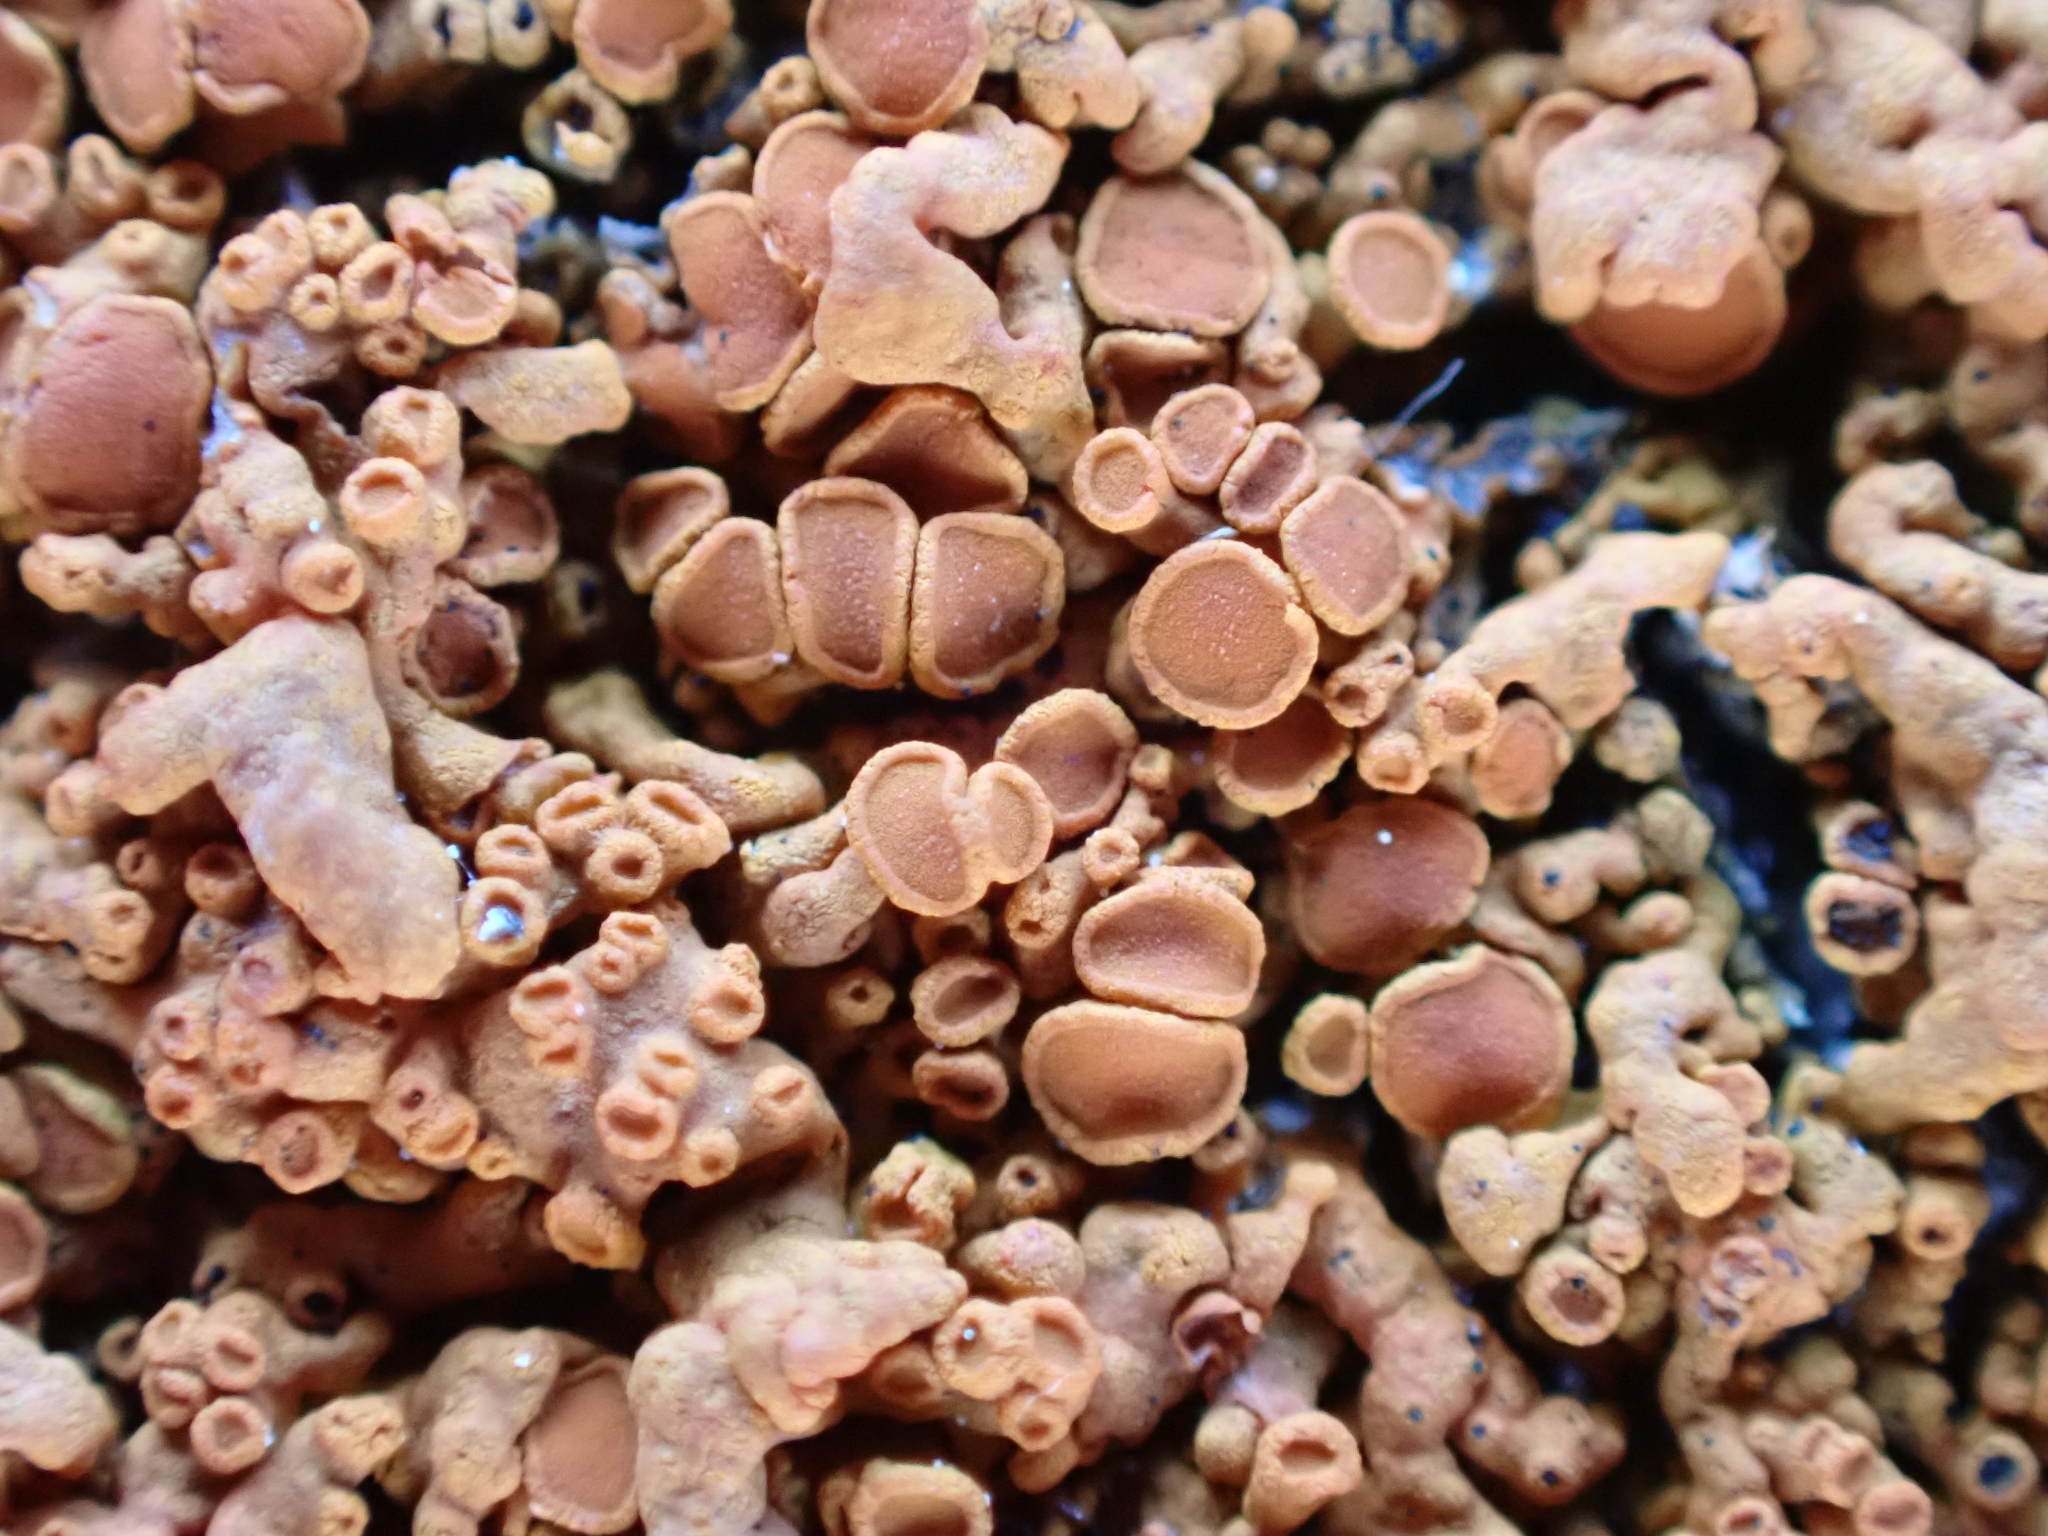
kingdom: Fungi
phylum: Ascomycota
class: Lecanoromycetes
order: Teloschistales
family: Teloschistaceae
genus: Xanthoria
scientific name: Xanthoria elegans
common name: Elegant sunburst lichen
